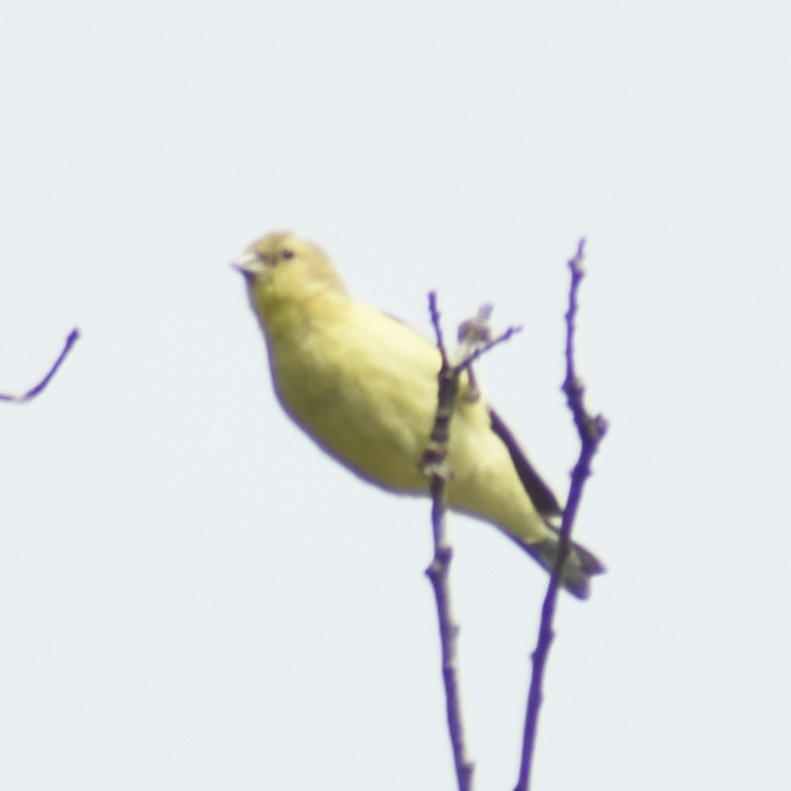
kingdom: Animalia
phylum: Chordata
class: Aves
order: Passeriformes
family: Fringillidae
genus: Spinus
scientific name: Spinus psaltria
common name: Lesser goldfinch
